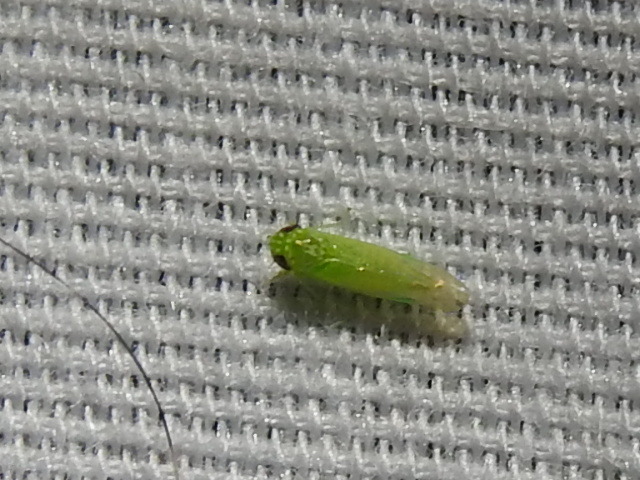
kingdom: Animalia
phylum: Arthropoda
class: Insecta
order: Hemiptera
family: Cicadellidae
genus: Empoasca
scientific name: Empoasca fabae
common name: Potato leafhopper
